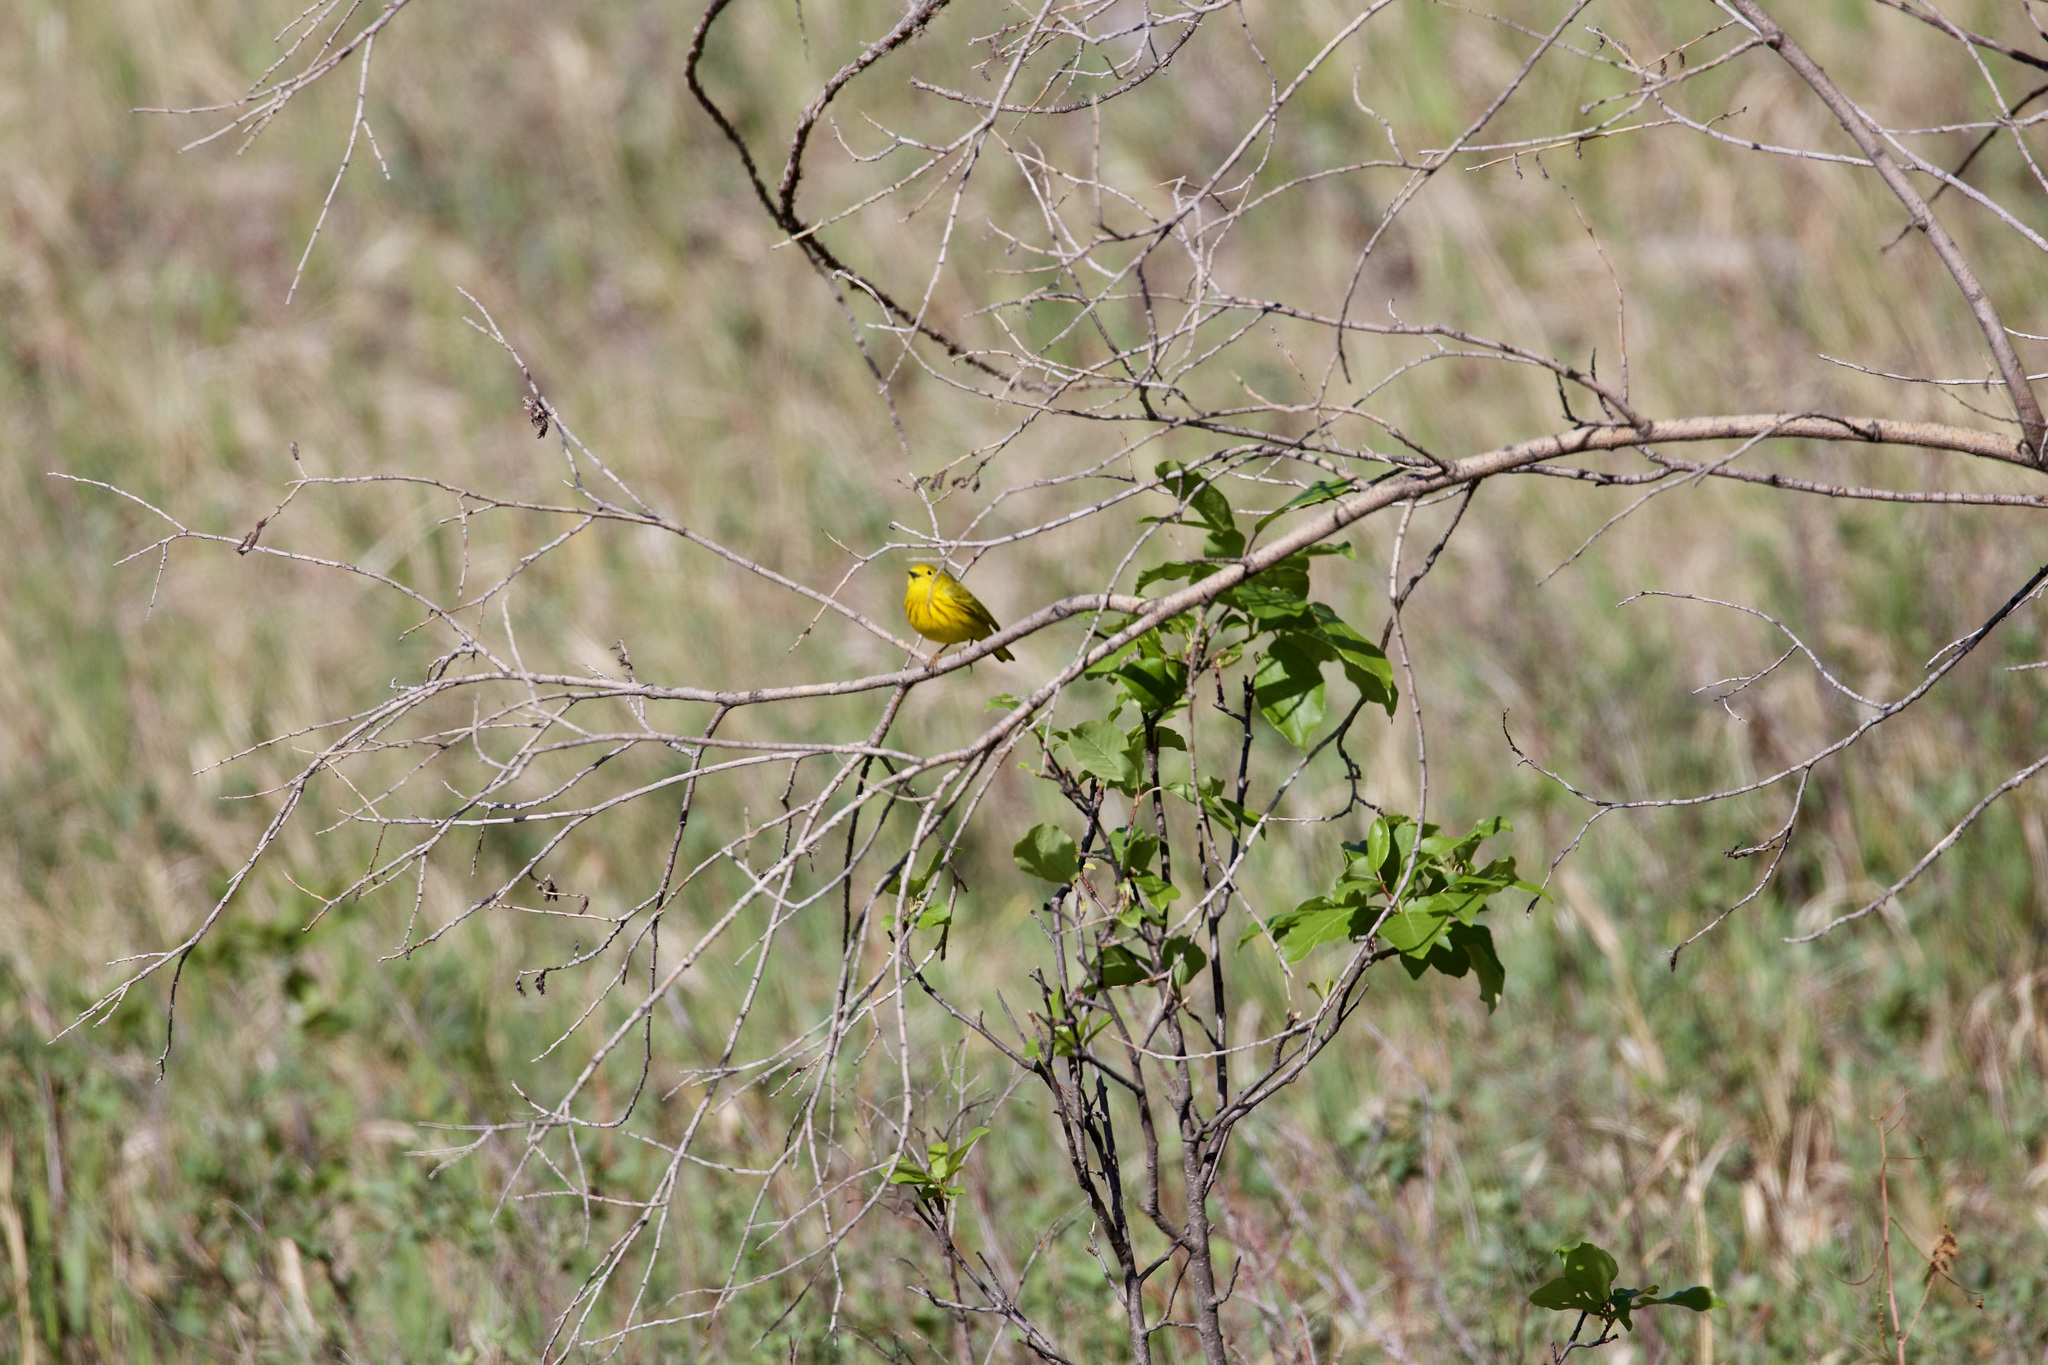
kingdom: Animalia
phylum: Chordata
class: Aves
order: Passeriformes
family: Parulidae
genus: Setophaga
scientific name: Setophaga petechia
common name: Yellow warbler
